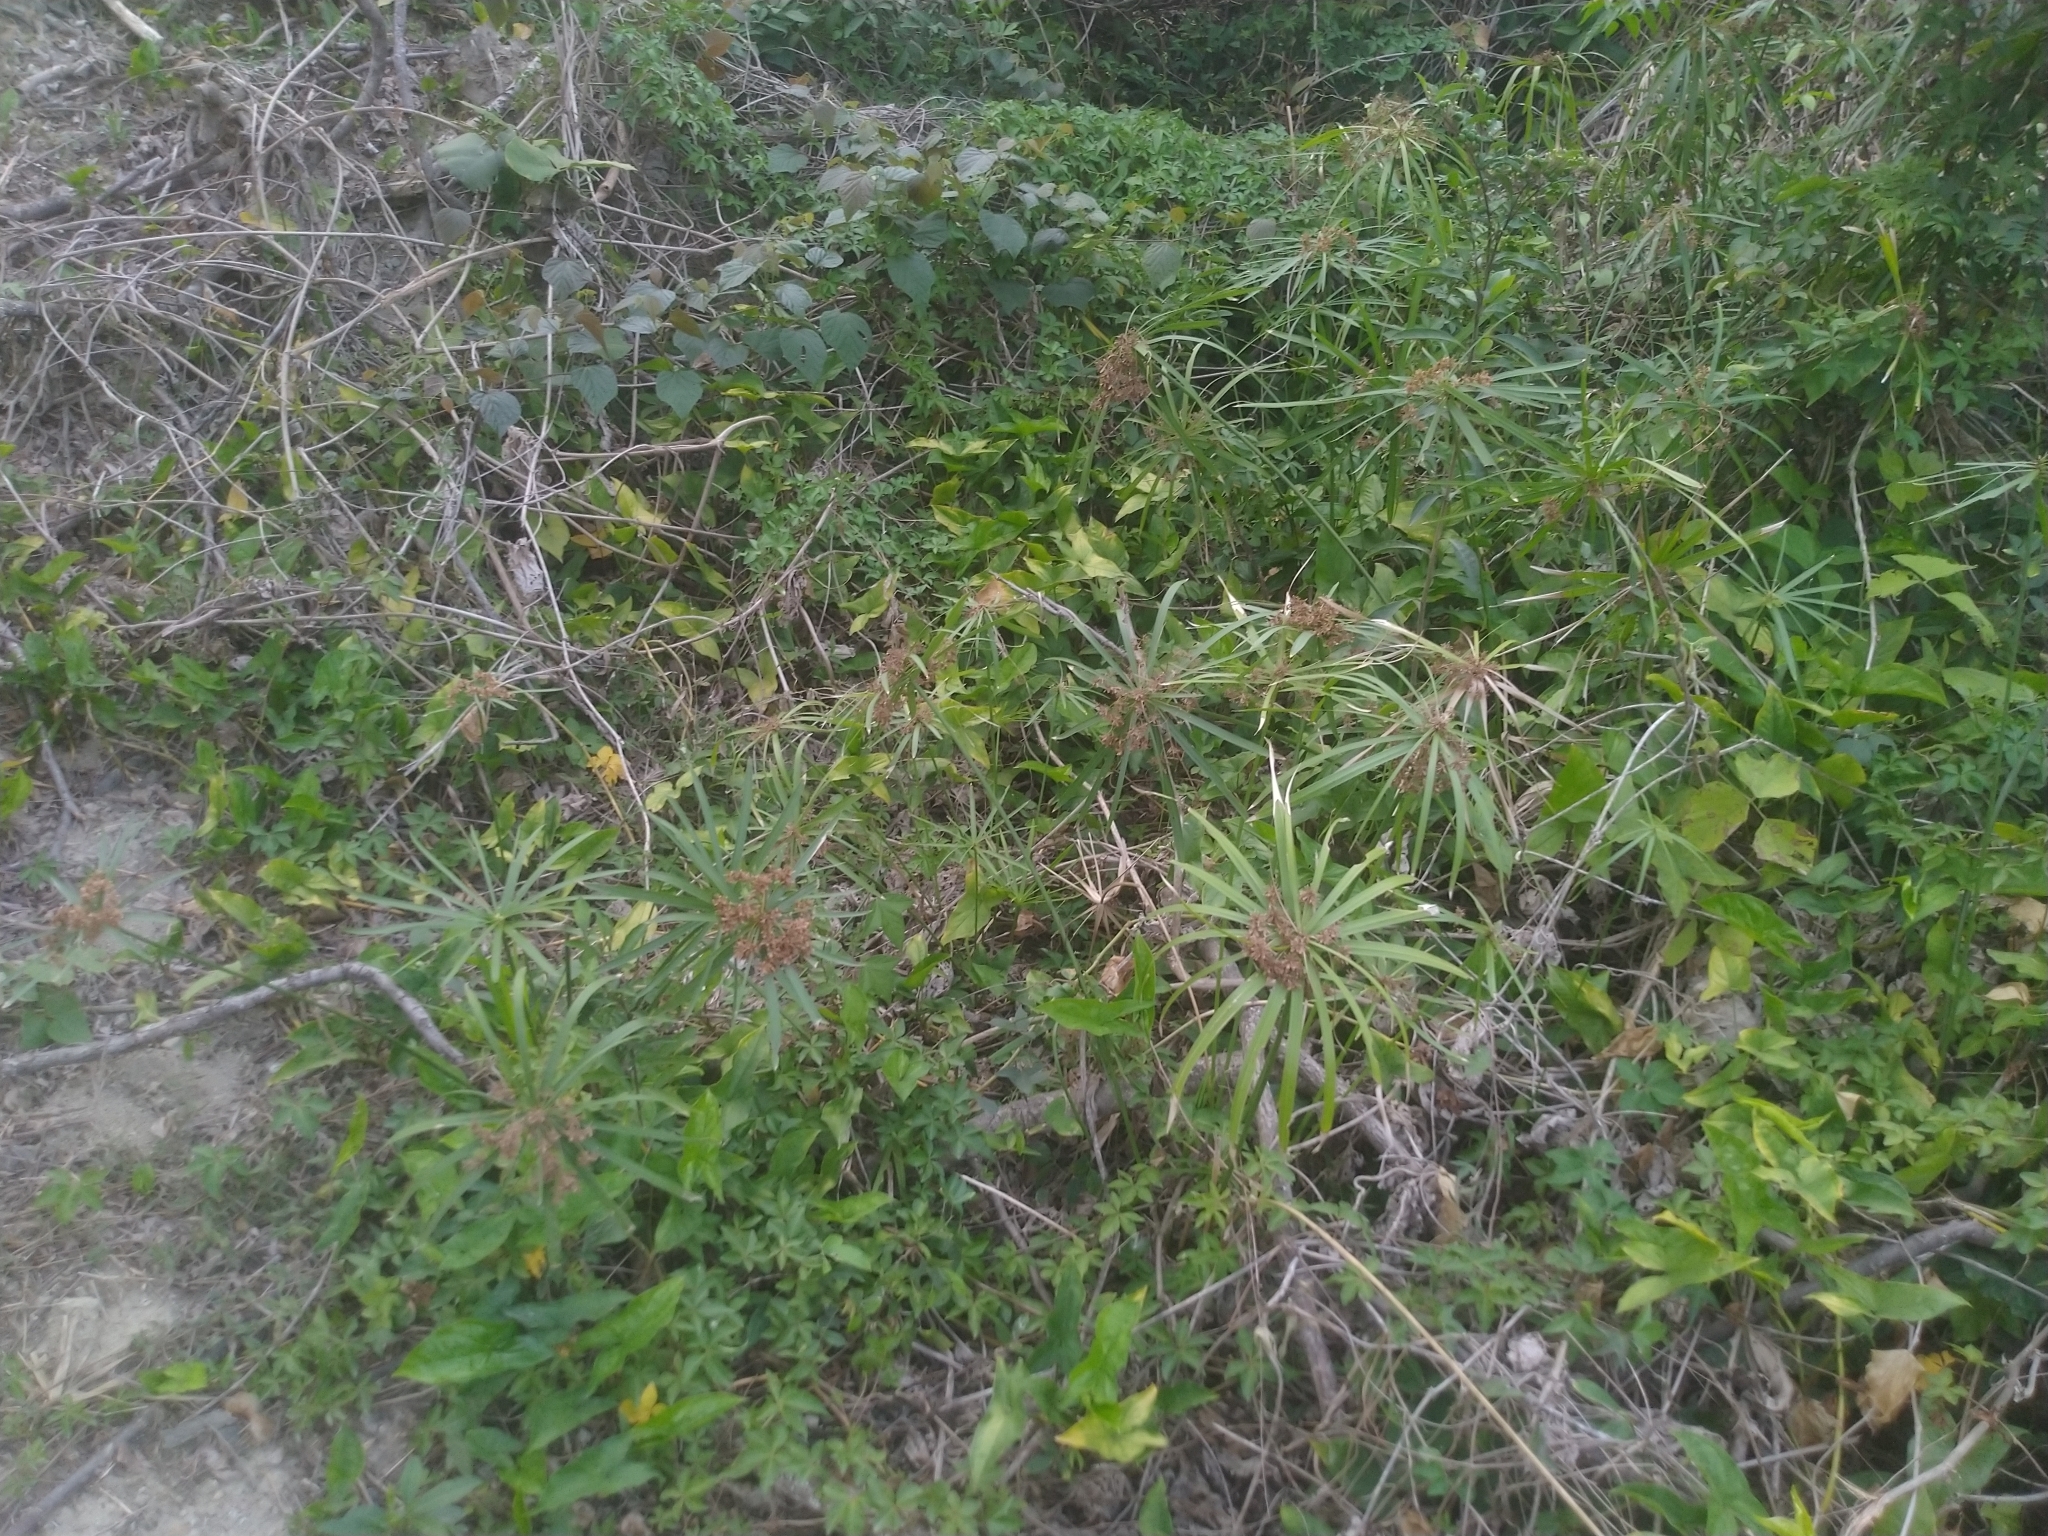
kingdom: Plantae
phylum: Tracheophyta
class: Liliopsida
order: Poales
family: Cyperaceae
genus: Cyperus
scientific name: Cyperus alternifolius
